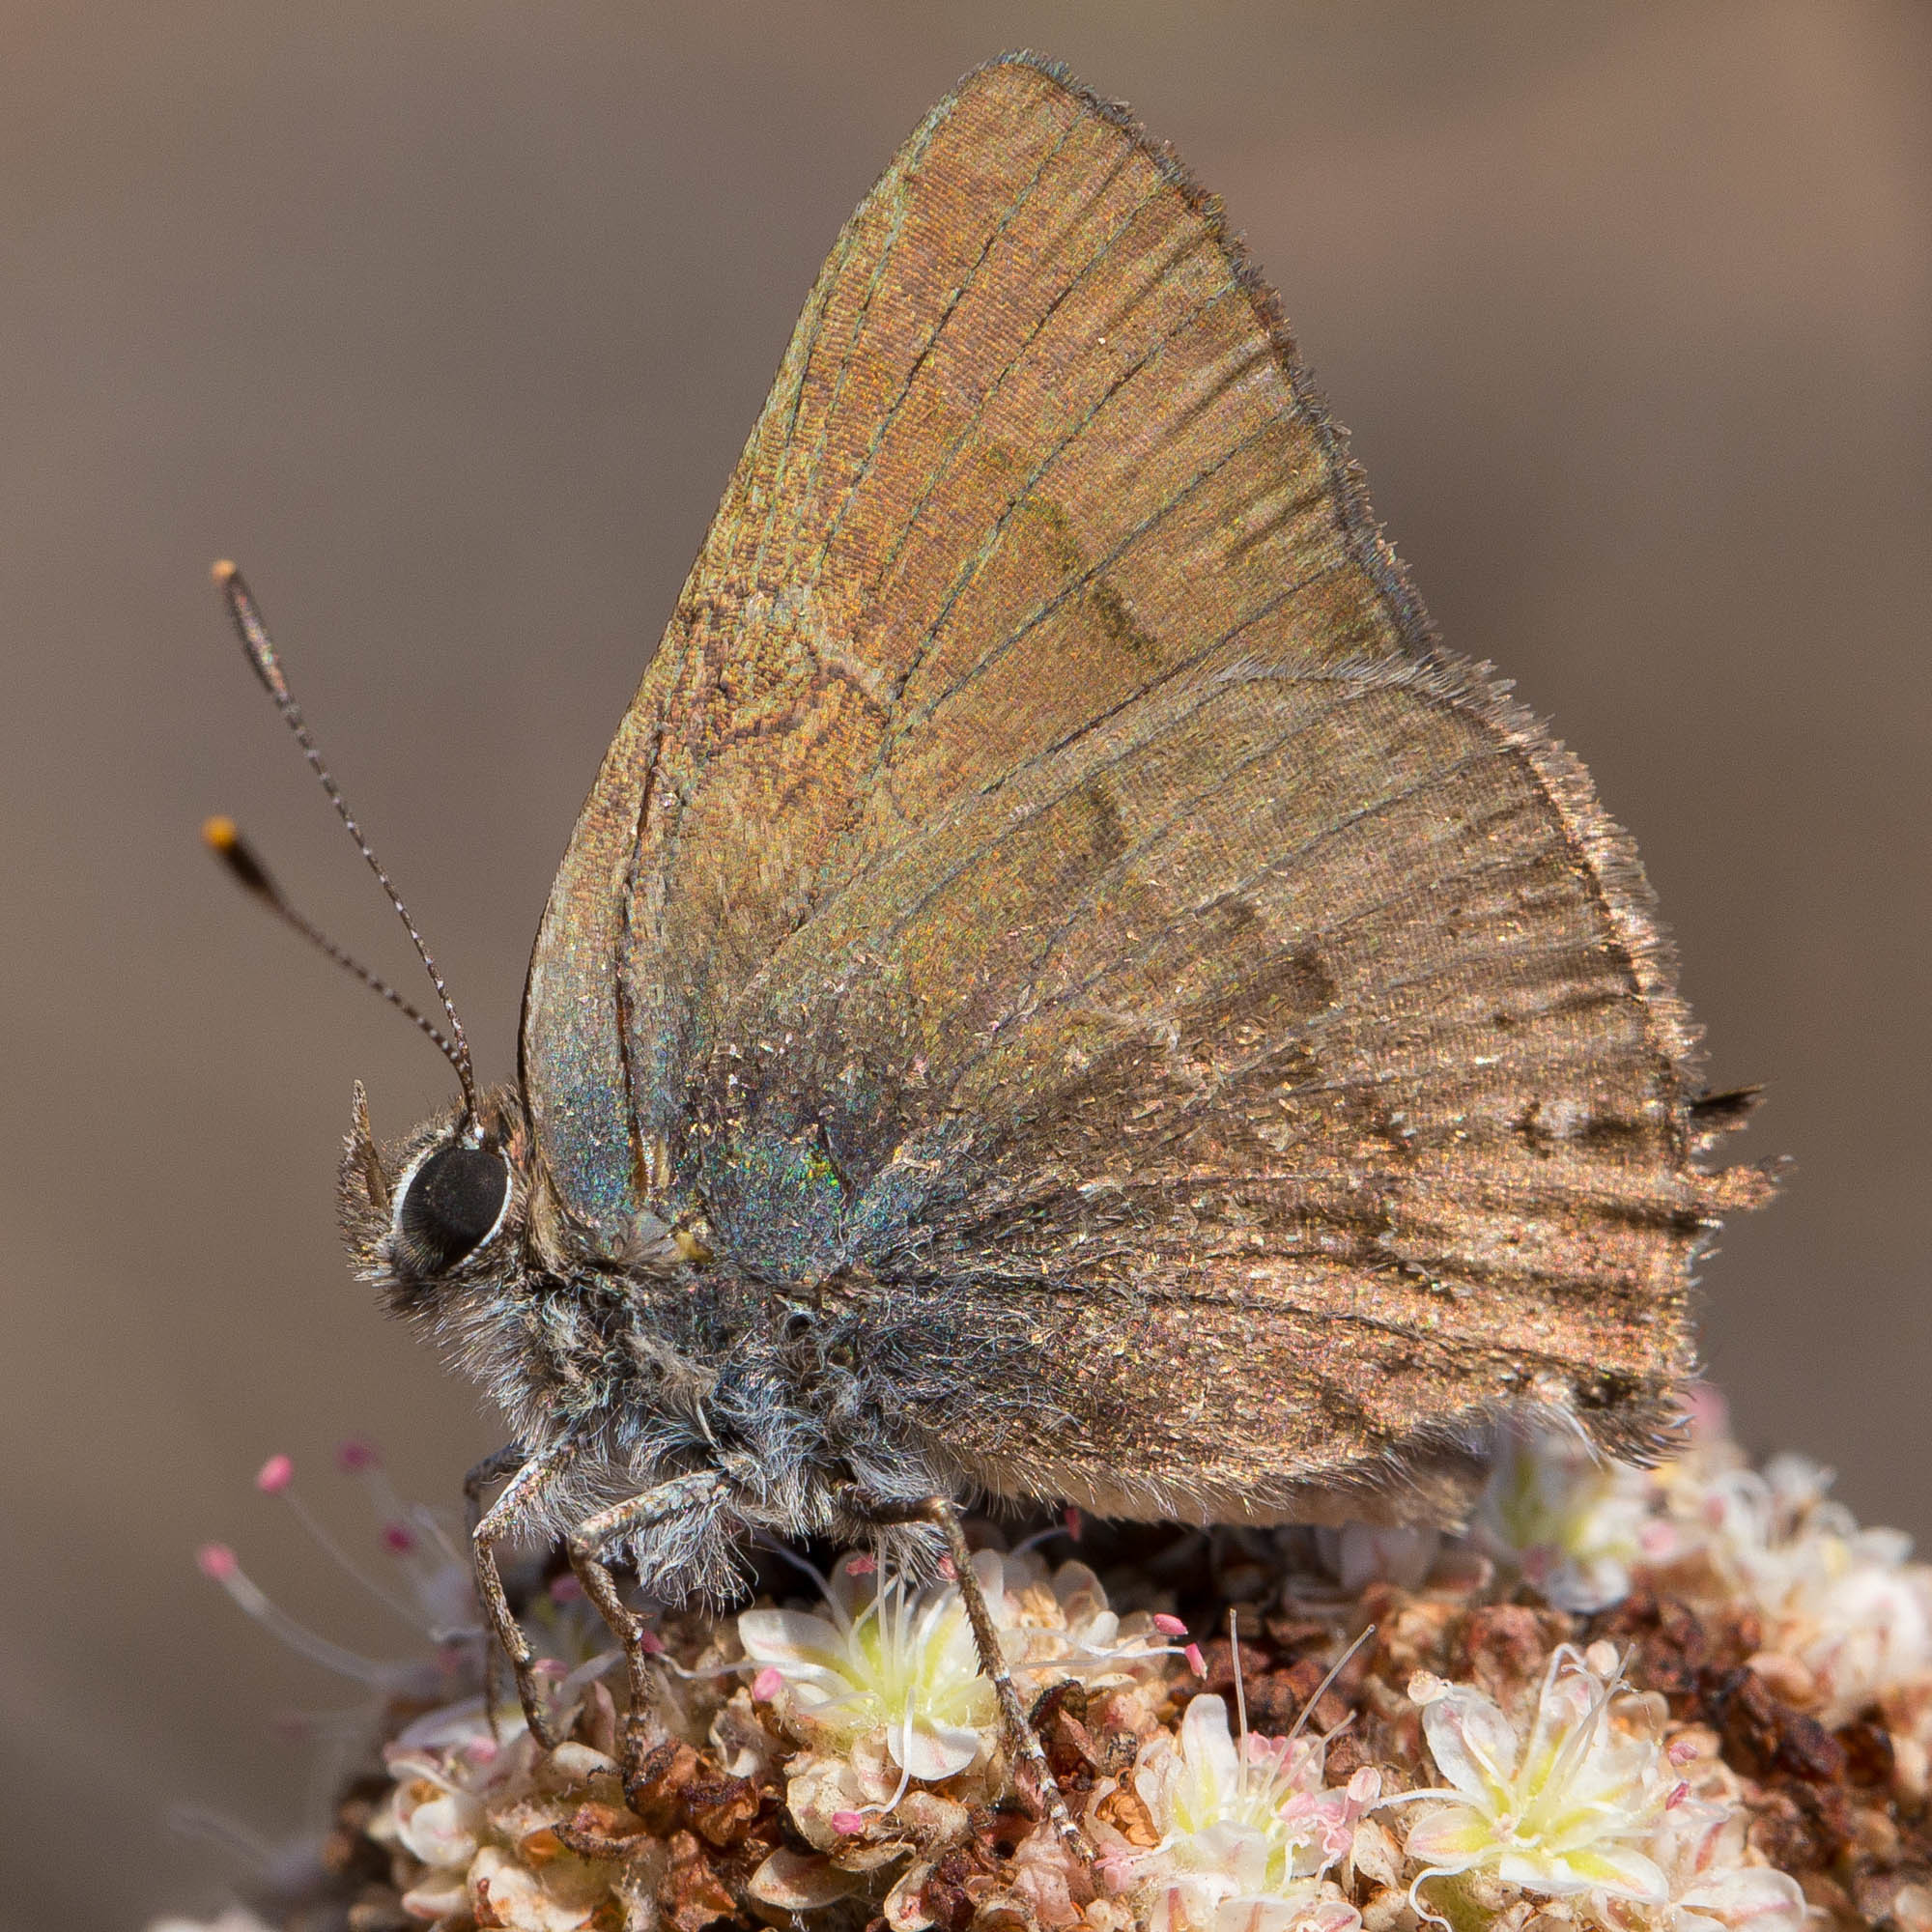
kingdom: Animalia
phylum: Arthropoda
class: Insecta
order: Lepidoptera
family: Lycaenidae
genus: Strymon
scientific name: Strymon saepium
